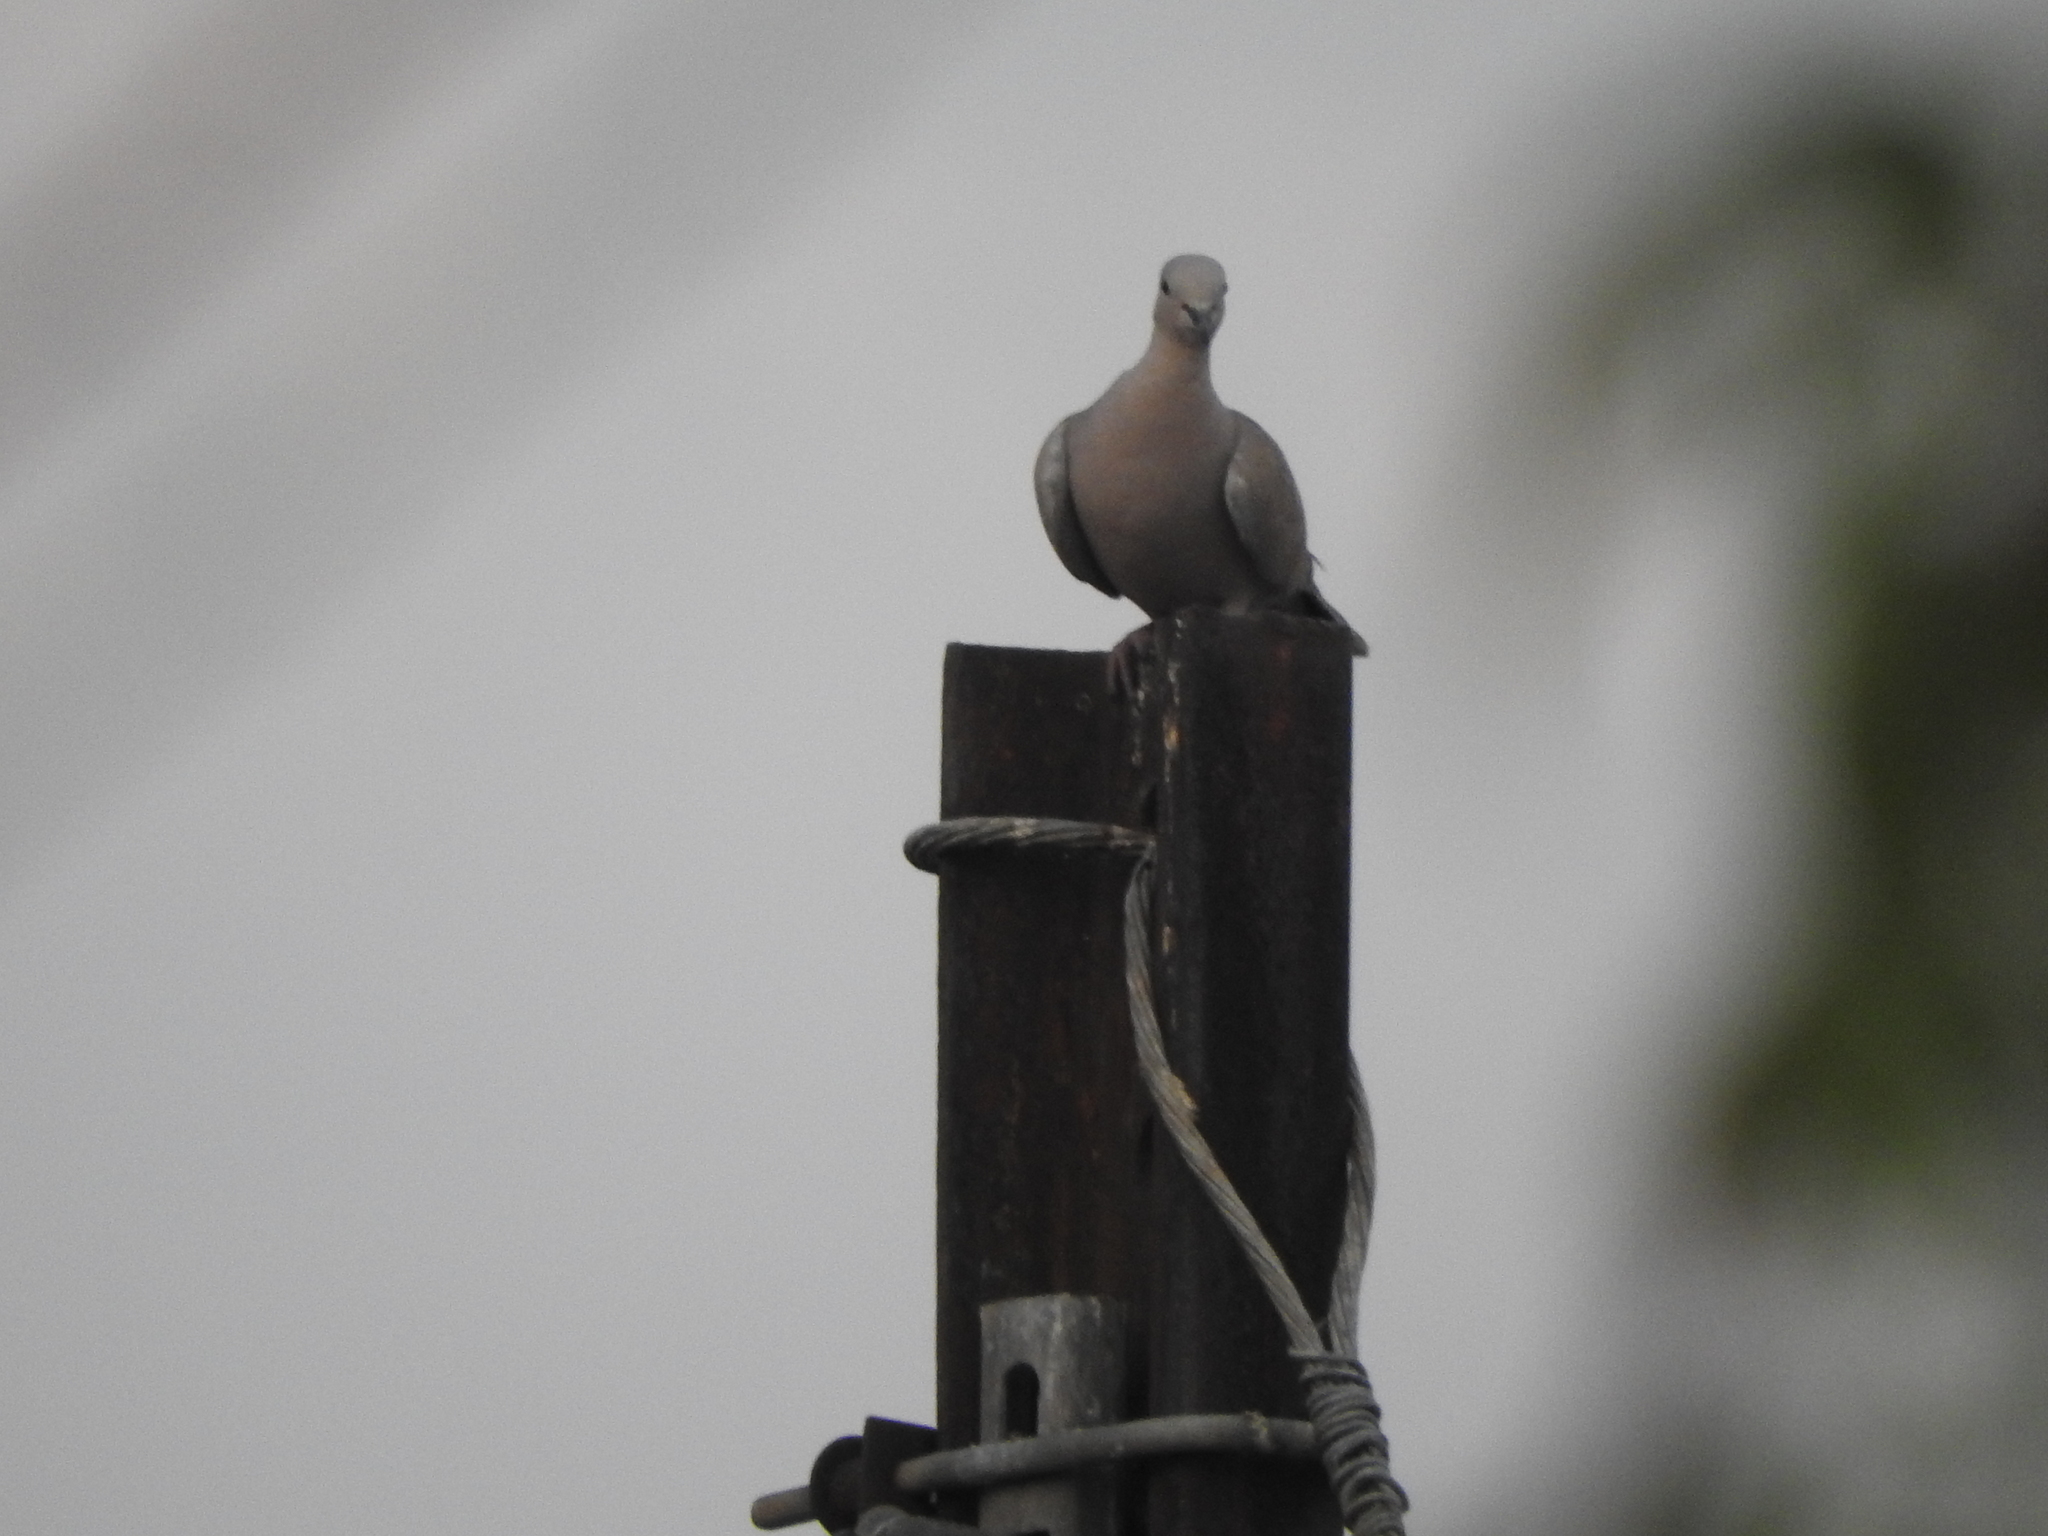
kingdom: Animalia
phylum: Chordata
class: Aves
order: Columbiformes
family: Columbidae
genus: Streptopelia
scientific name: Streptopelia decaocto
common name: Eurasian collared dove
